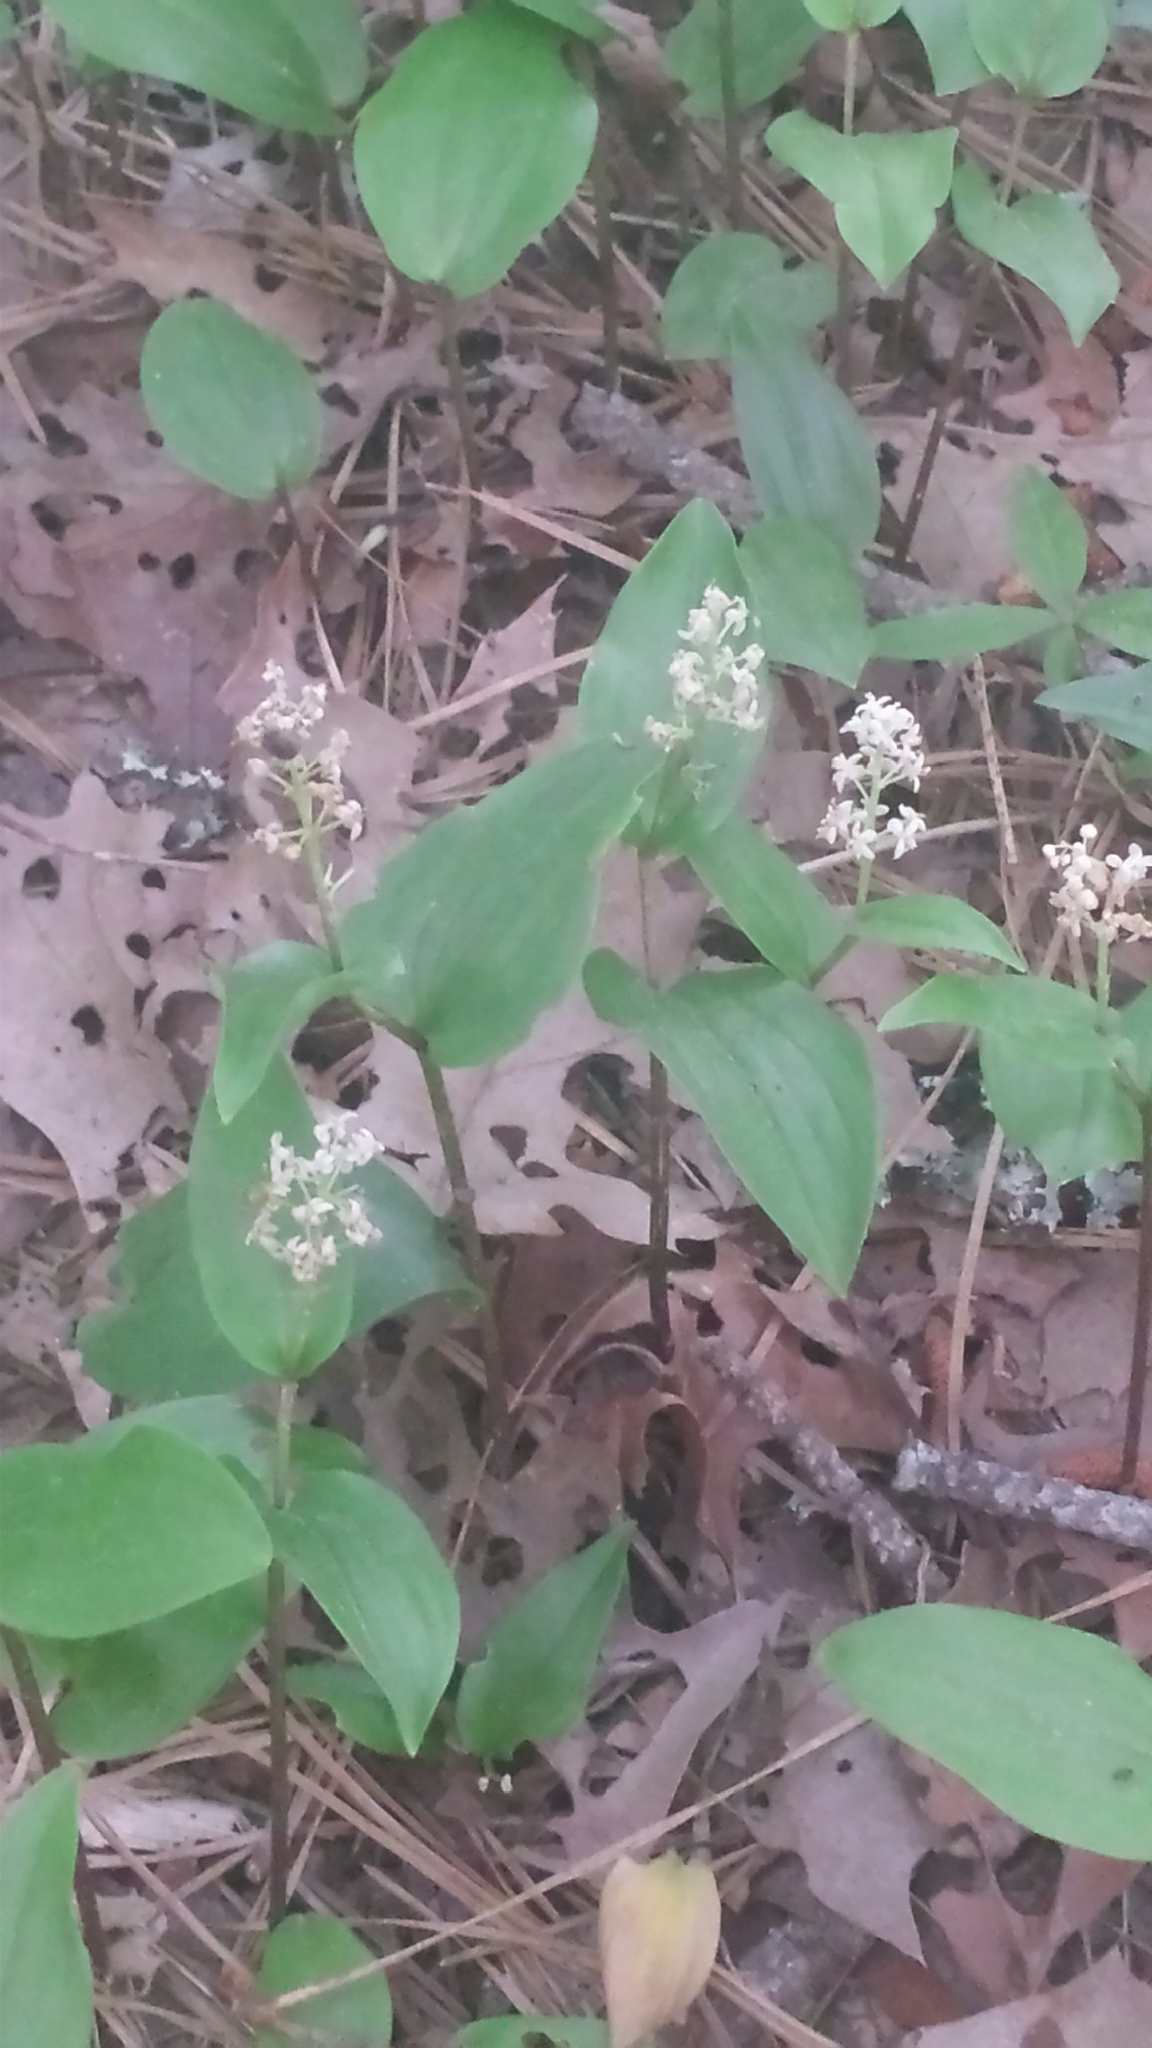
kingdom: Plantae
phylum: Tracheophyta
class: Liliopsida
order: Asparagales
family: Asparagaceae
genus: Maianthemum
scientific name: Maianthemum canadense
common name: False lily-of-the-valley
